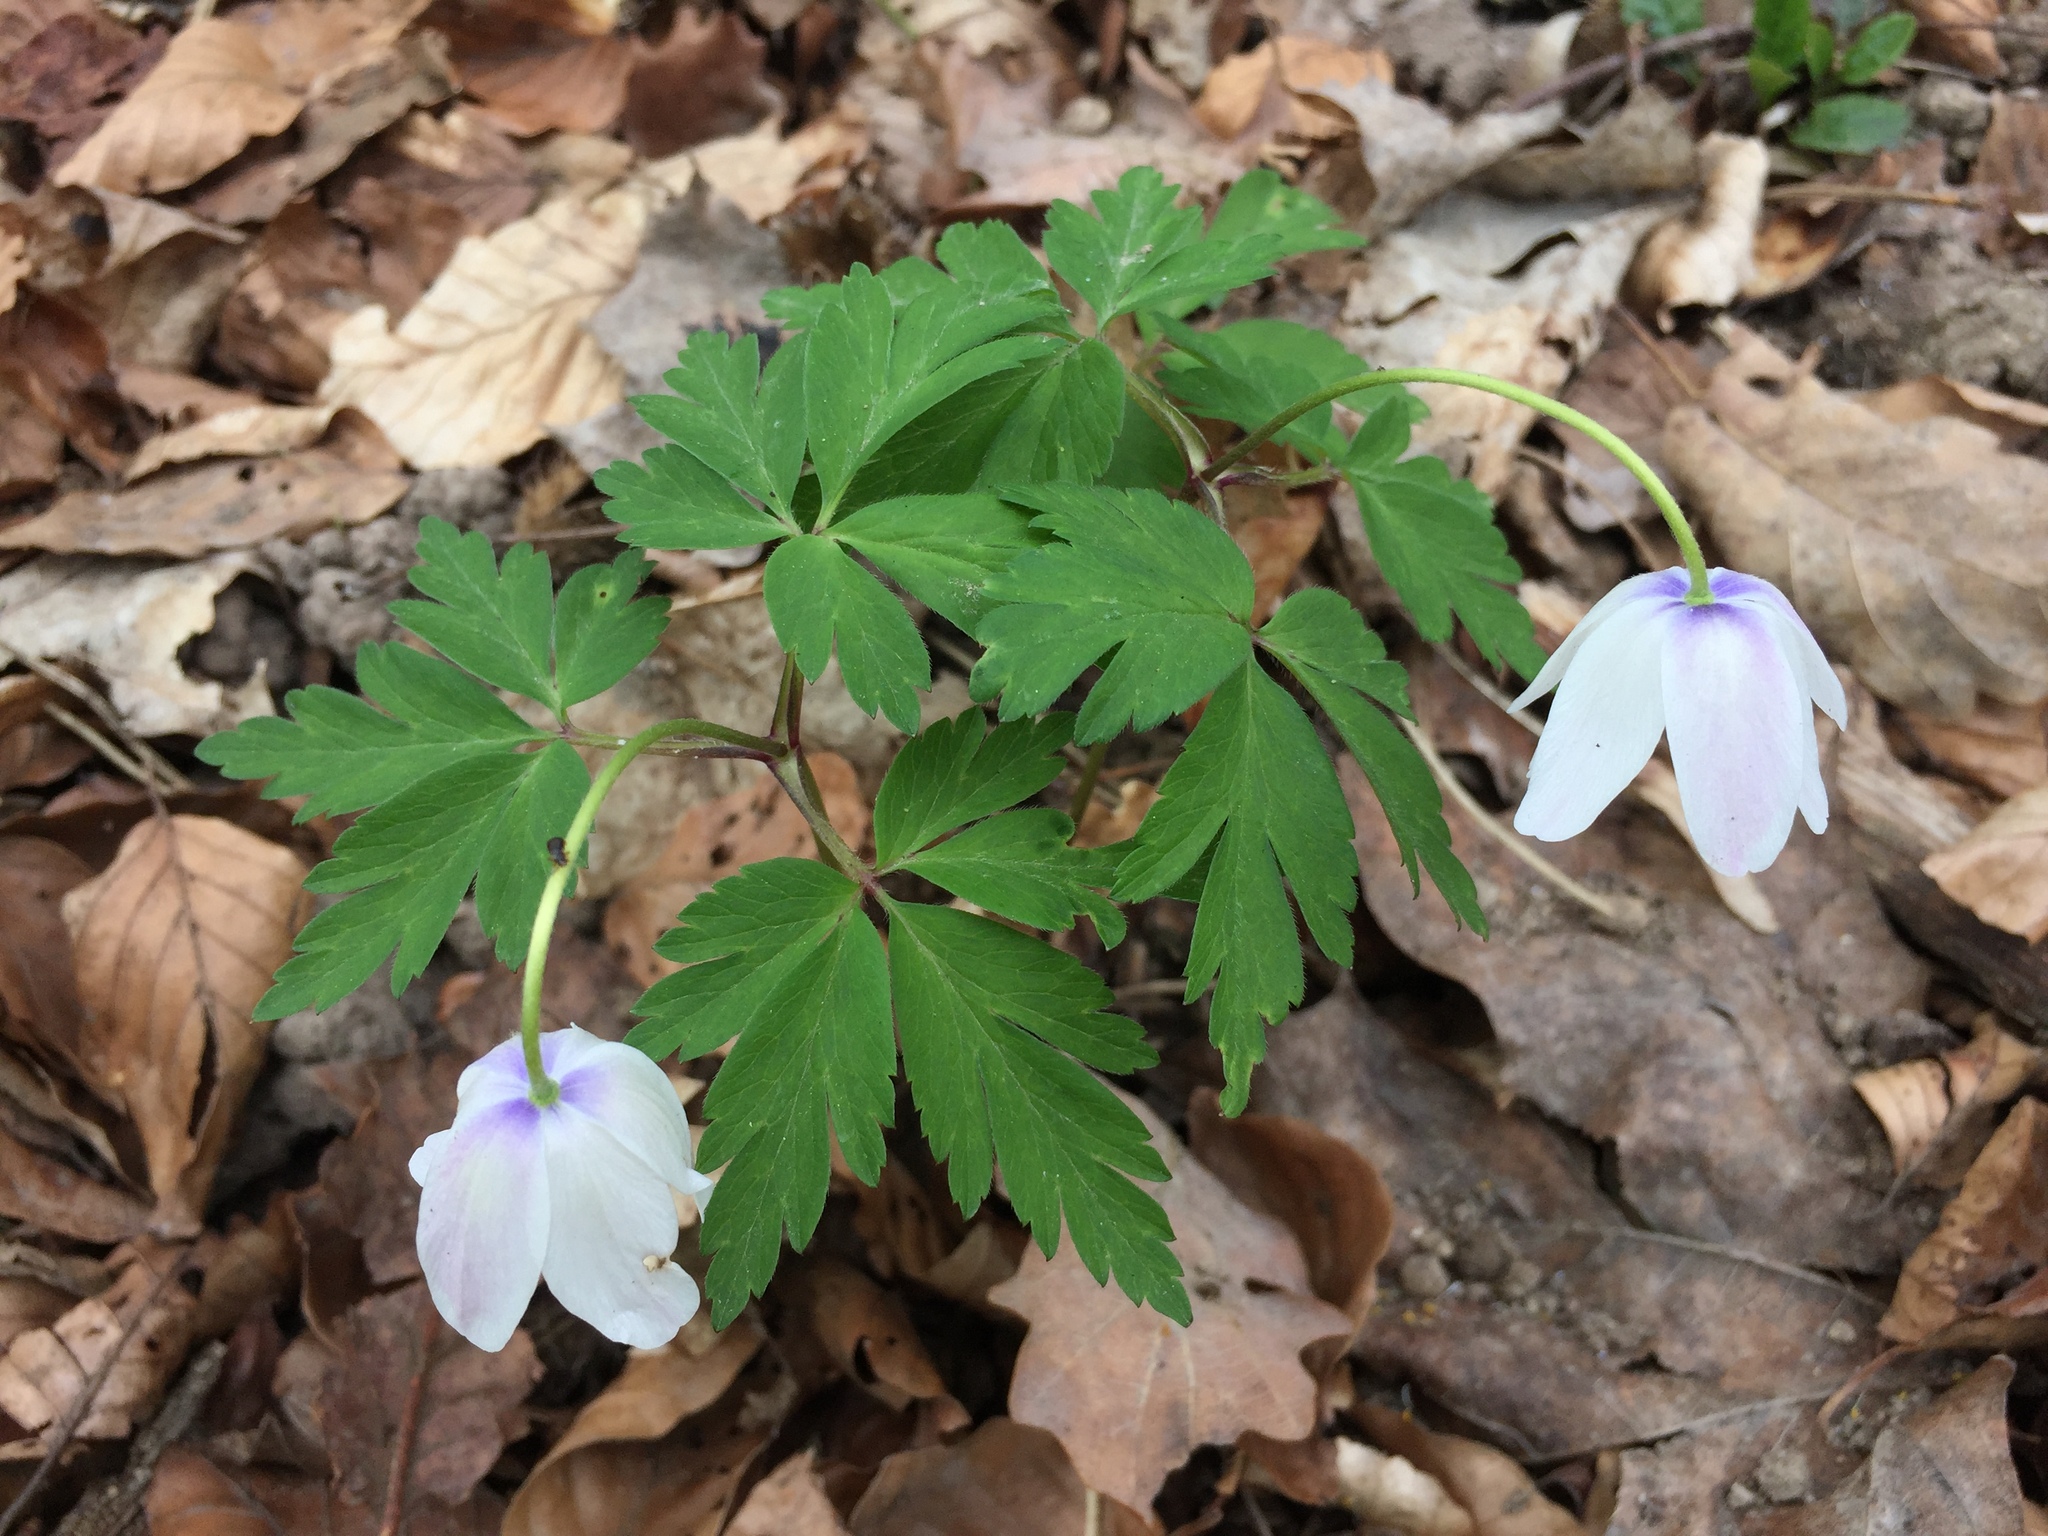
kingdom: Plantae
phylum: Tracheophyta
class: Magnoliopsida
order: Ranunculales
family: Ranunculaceae
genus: Anemone
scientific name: Anemone nemorosa
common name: Wood anemone
